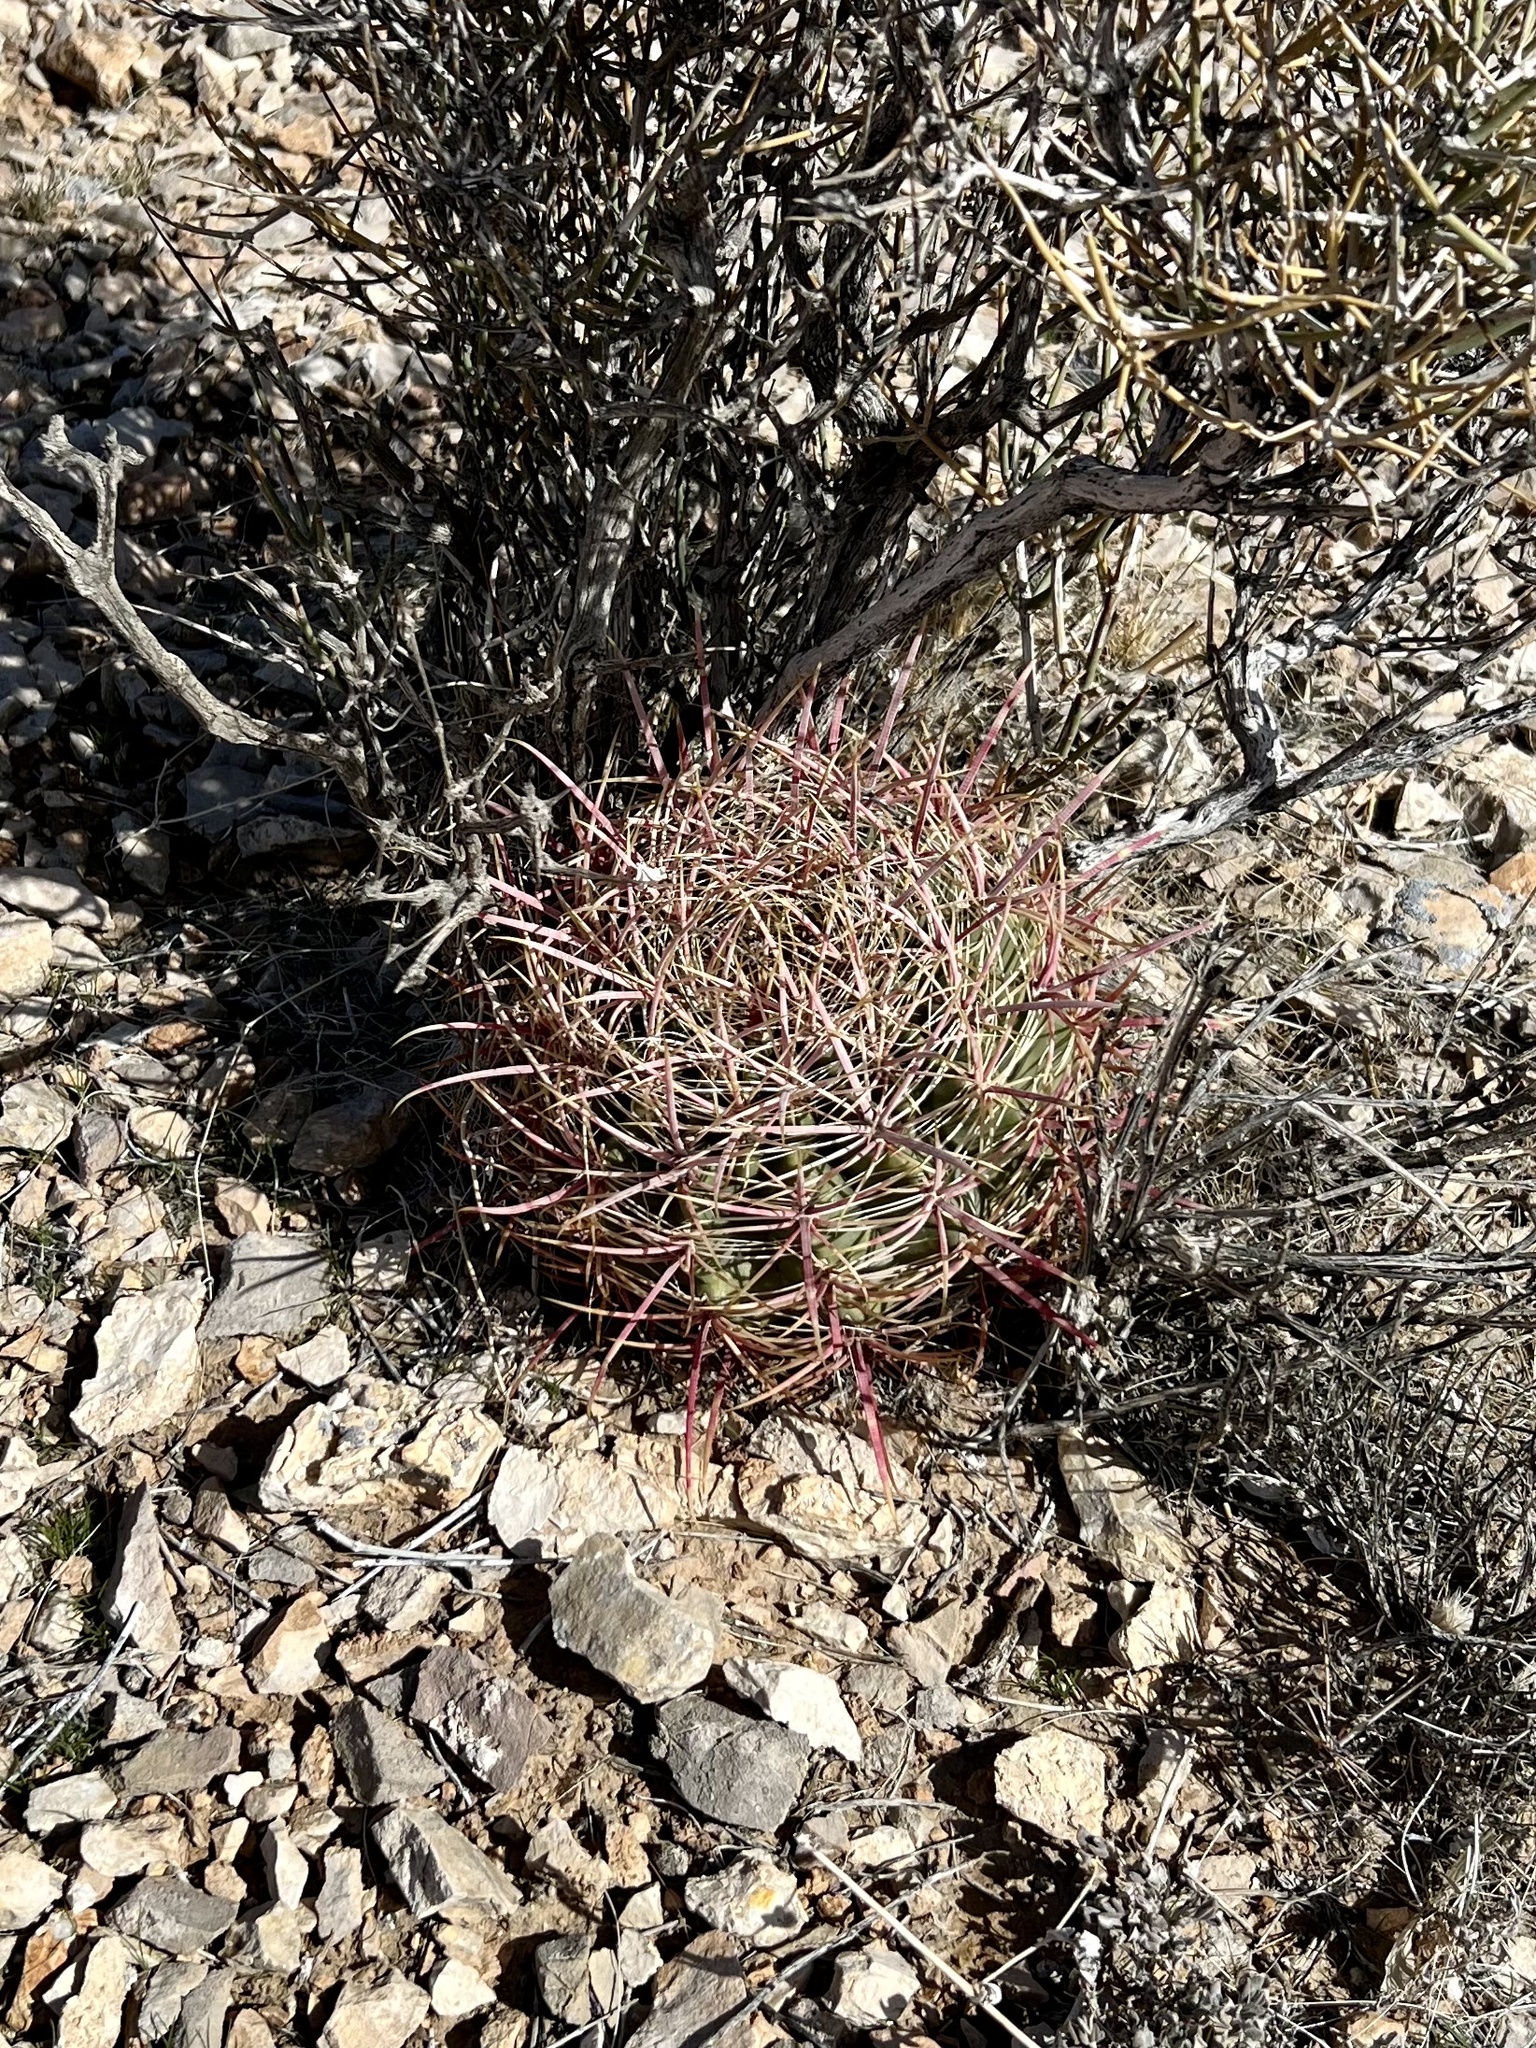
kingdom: Plantae
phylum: Tracheophyta
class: Magnoliopsida
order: Caryophyllales
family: Cactaceae
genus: Ferocactus
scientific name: Ferocactus cylindraceus
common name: California barrel cactus
